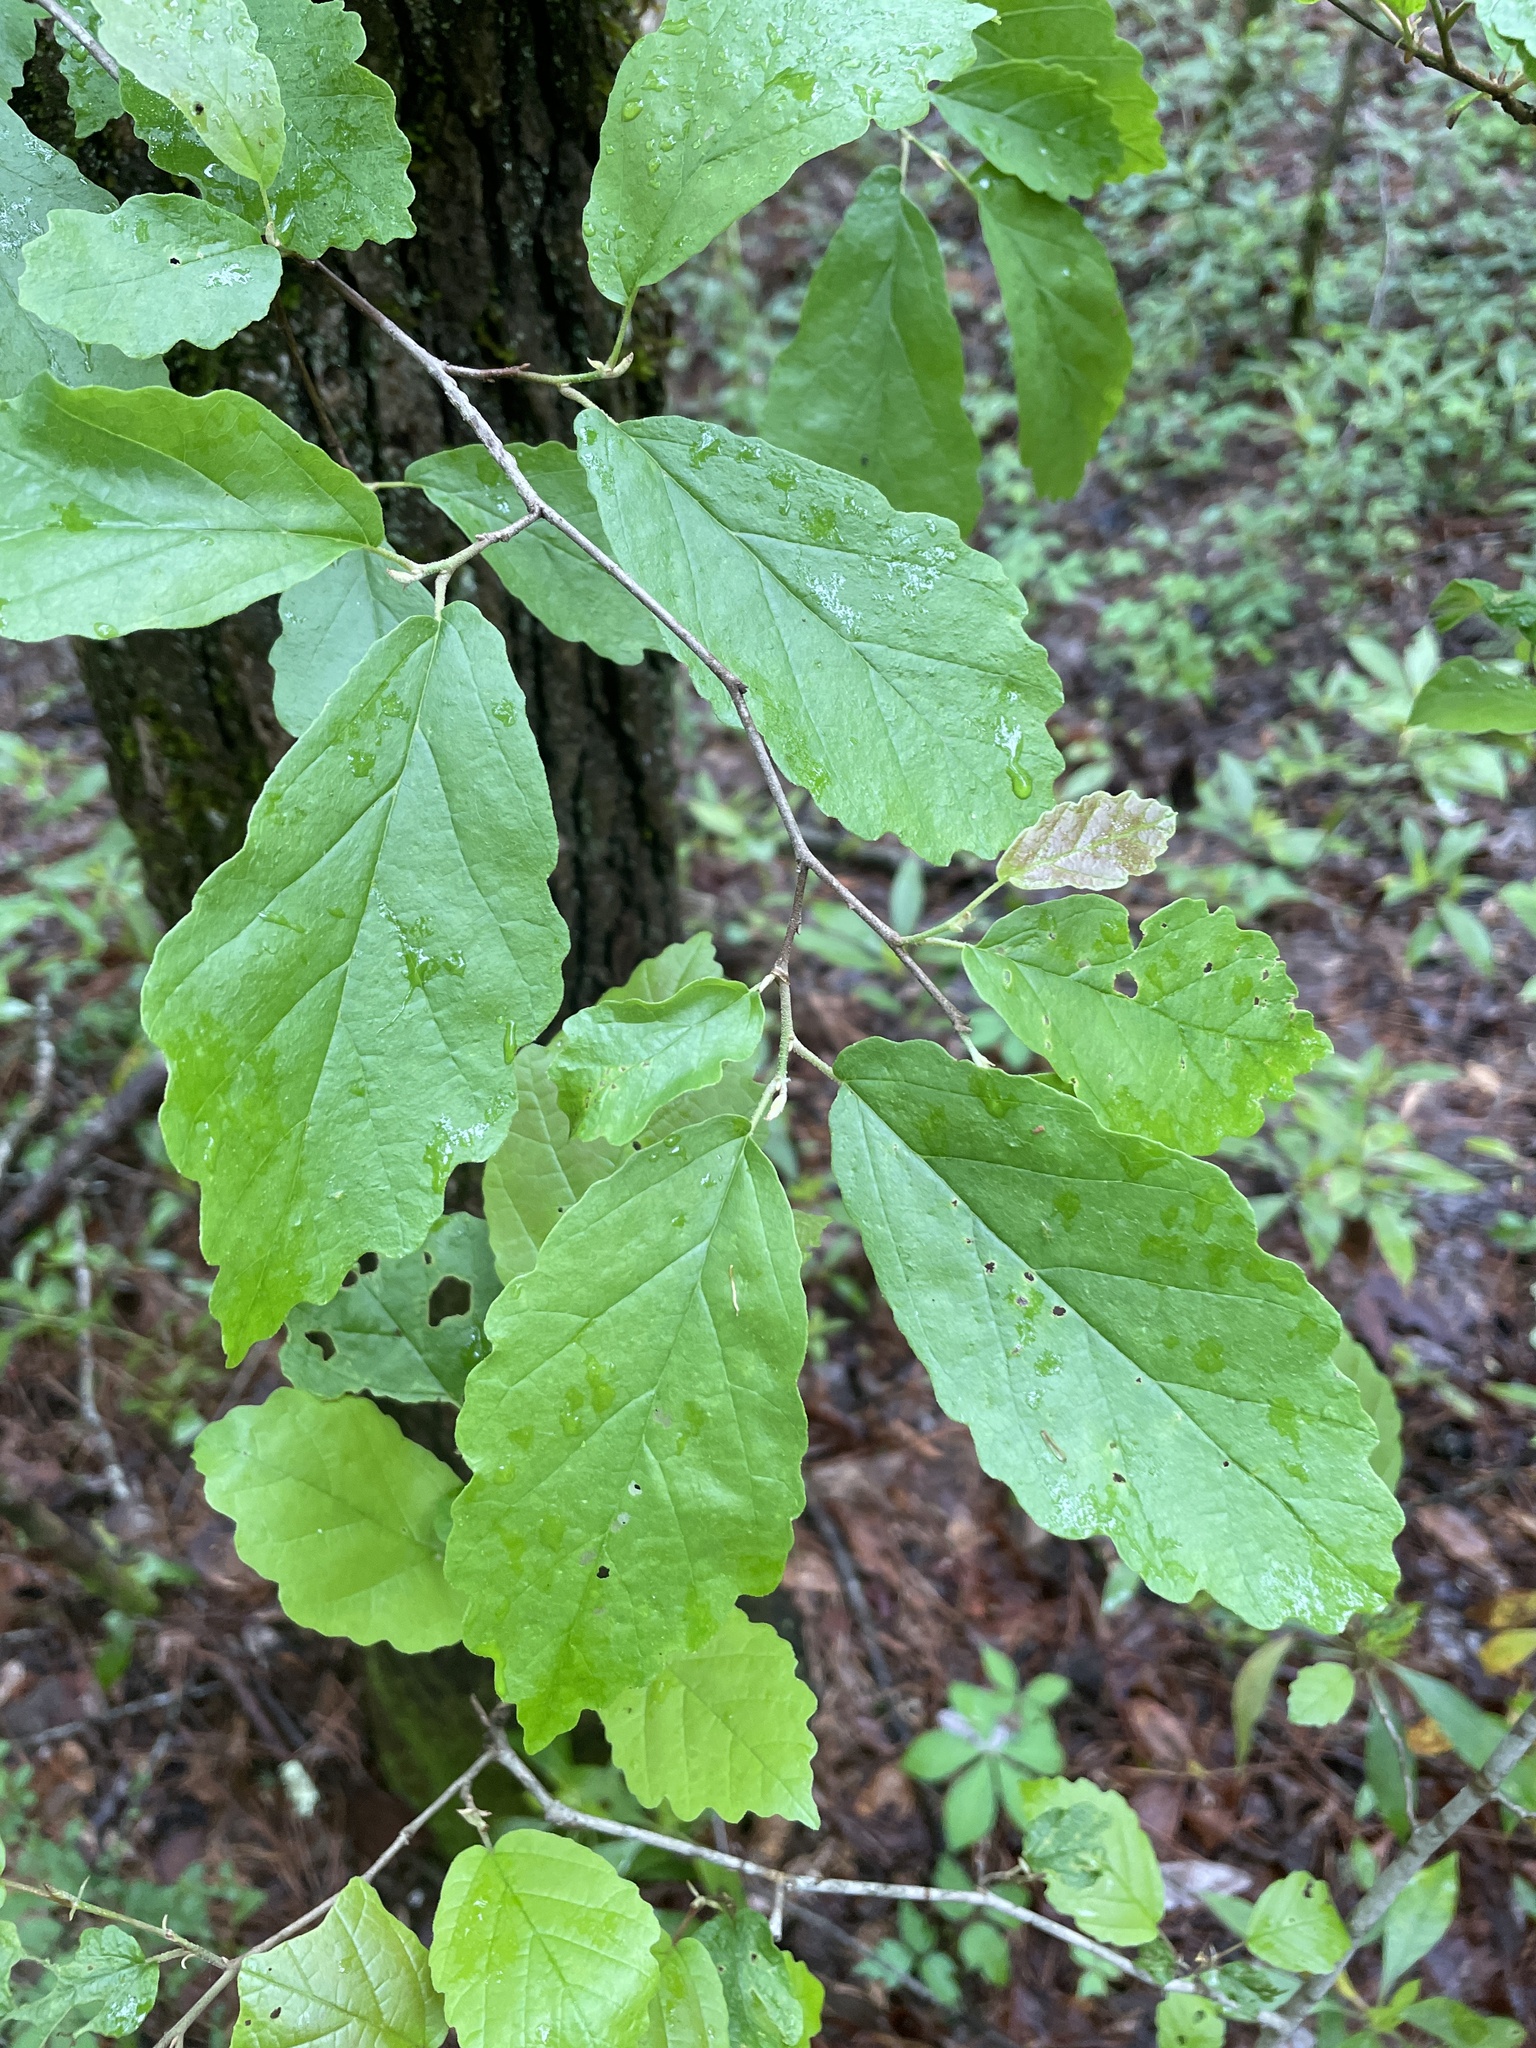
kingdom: Plantae
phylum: Tracheophyta
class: Magnoliopsida
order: Saxifragales
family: Hamamelidaceae
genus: Hamamelis
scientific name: Hamamelis virginiana
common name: Witch-hazel
